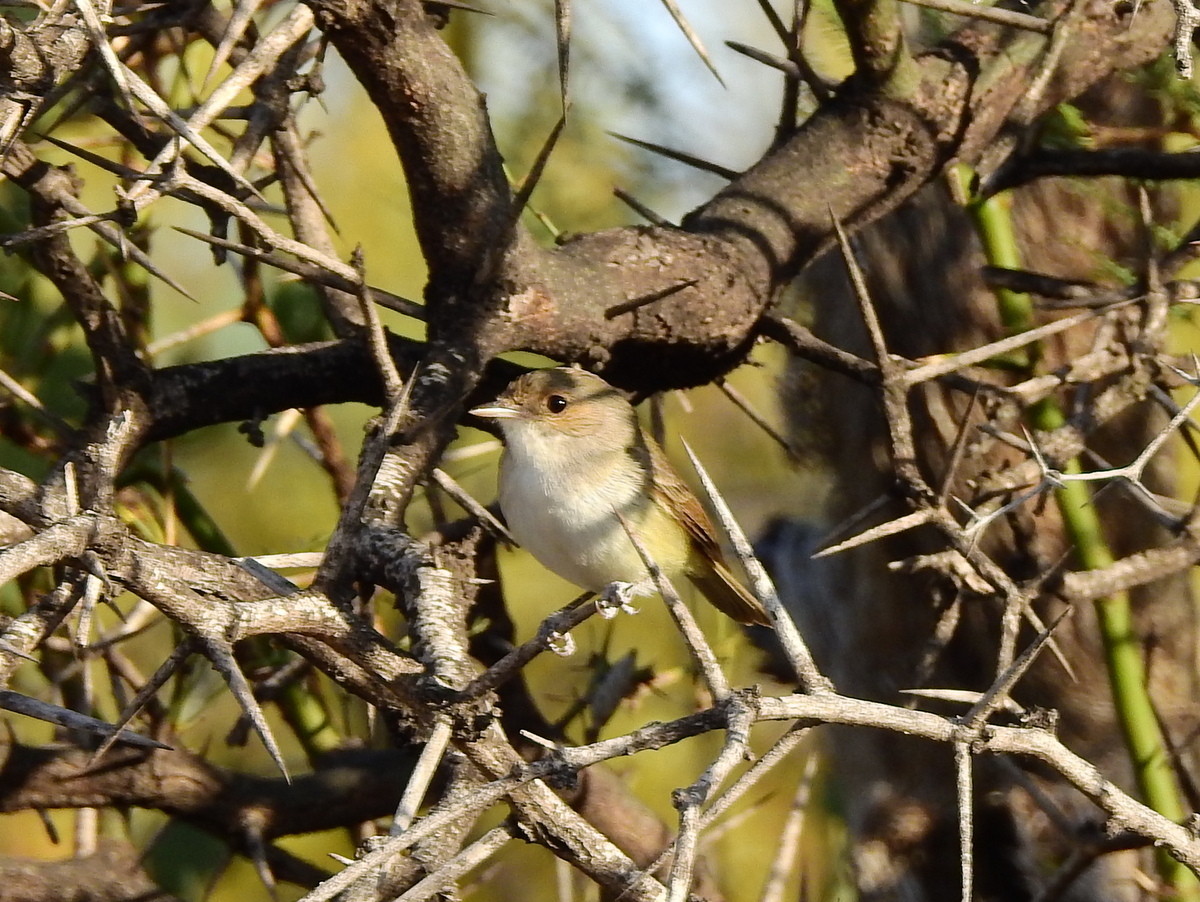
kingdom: Animalia
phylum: Chordata
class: Aves
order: Passeriformes
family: Tyrannidae
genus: Euscarthmus
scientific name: Euscarthmus meloryphus
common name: Tawny-crowned pygmy tyrant
